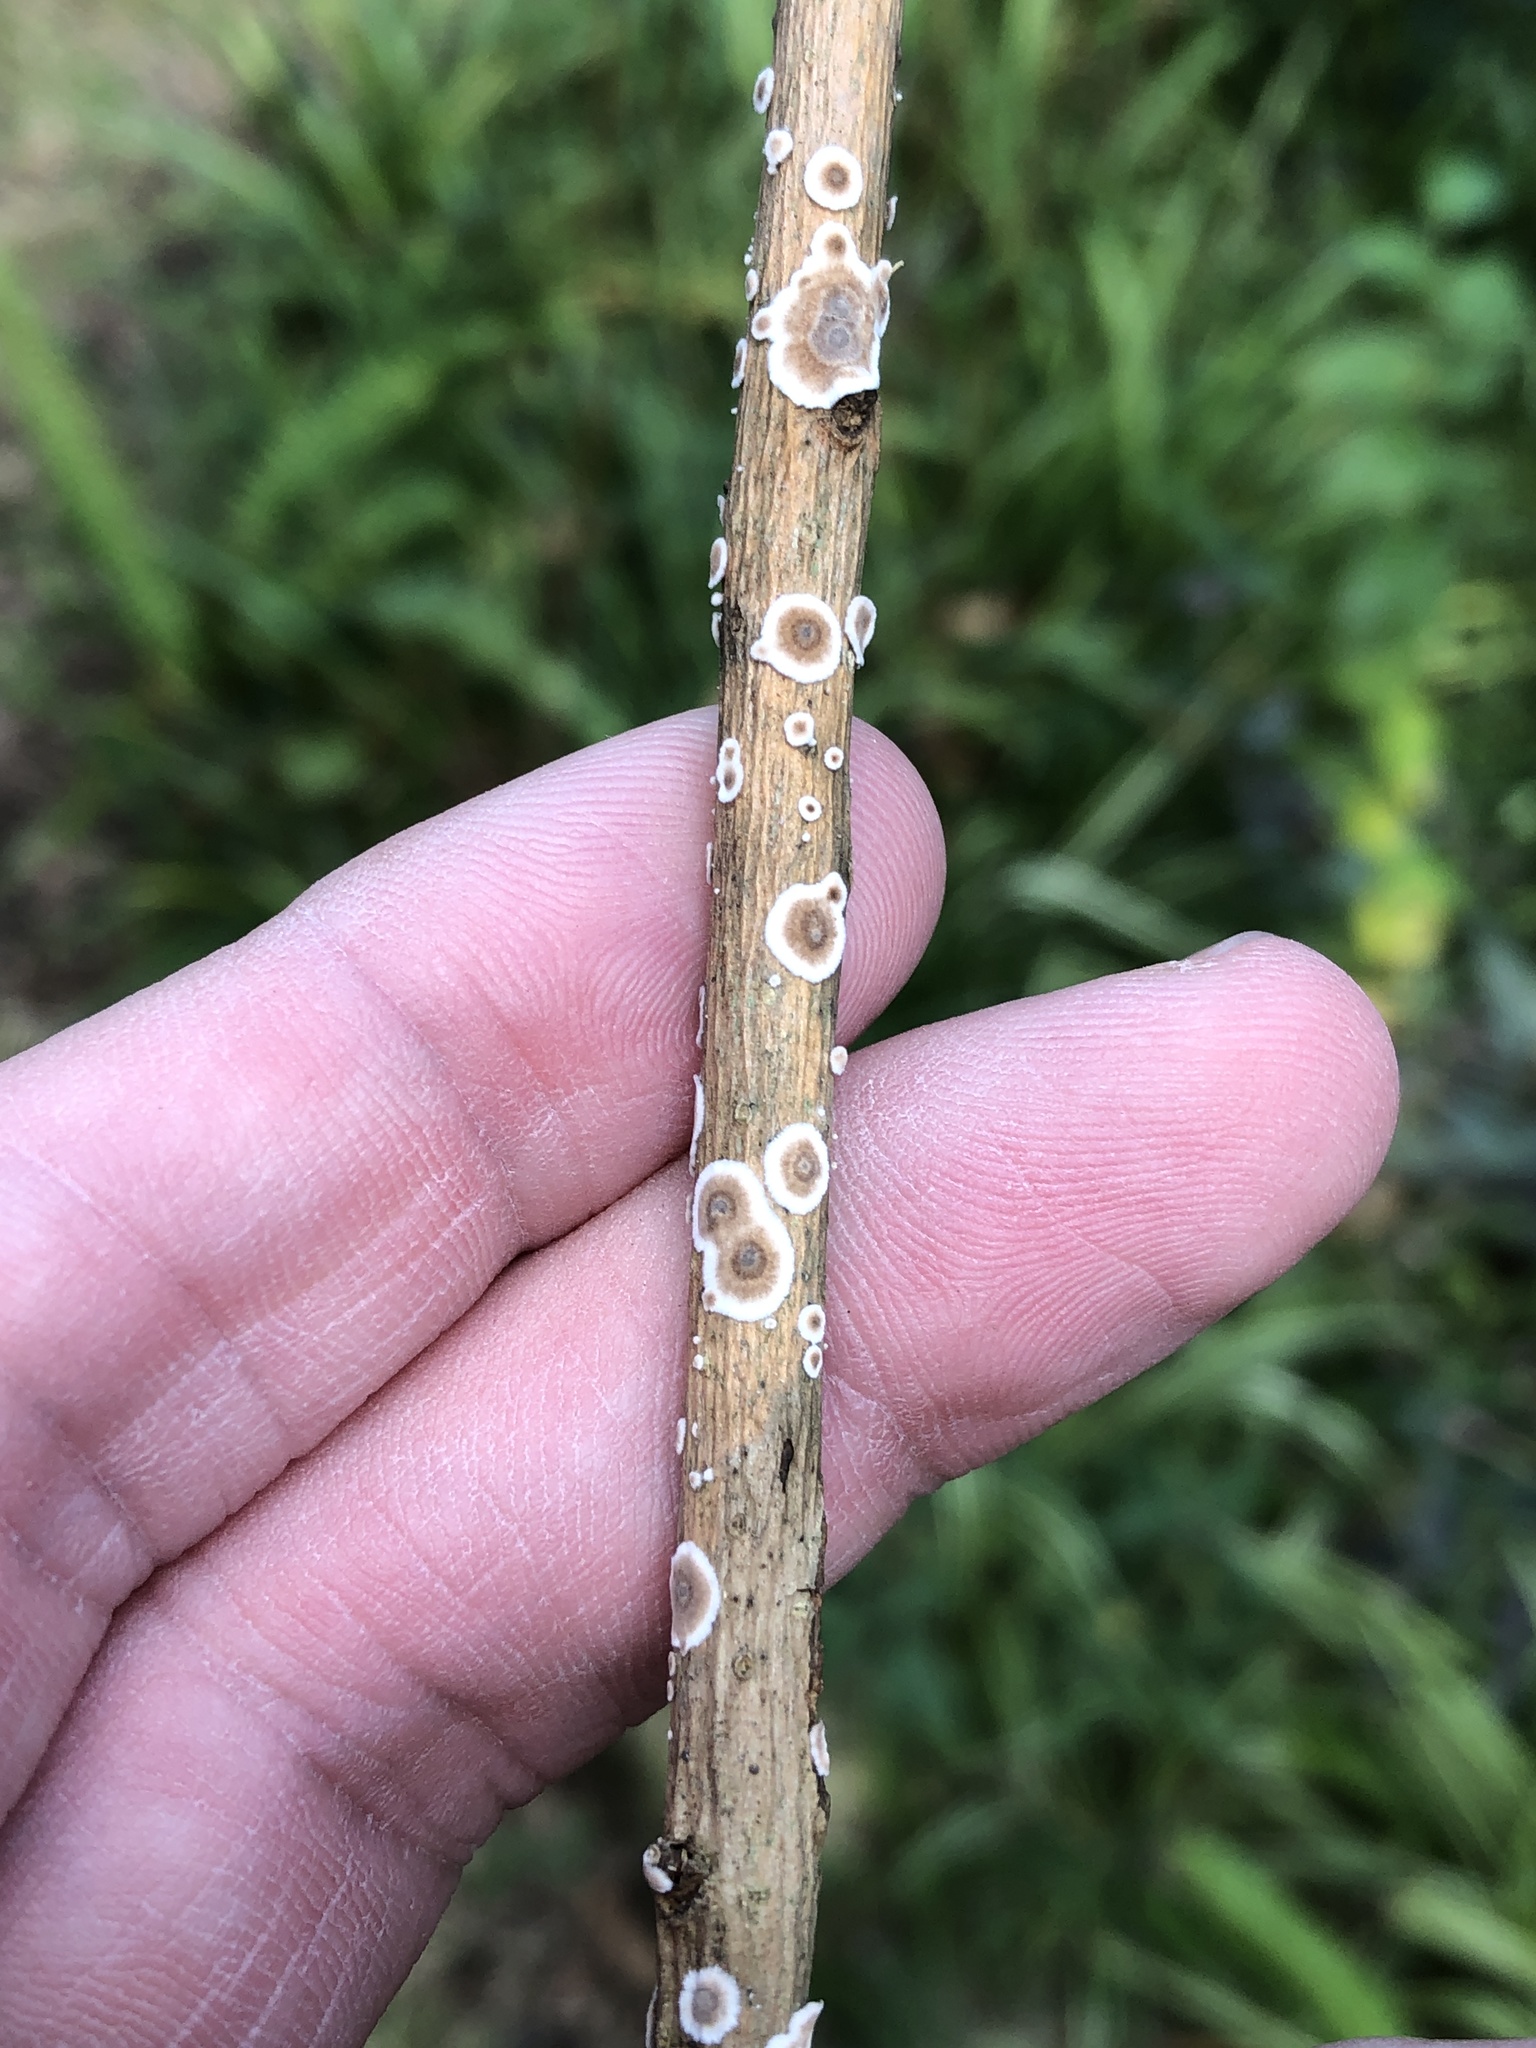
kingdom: Fungi
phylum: Basidiomycota
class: Agaricomycetes
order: Russulales
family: Peniophoraceae
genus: Peniophora
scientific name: Peniophora albobadia
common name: Giraffe spots
